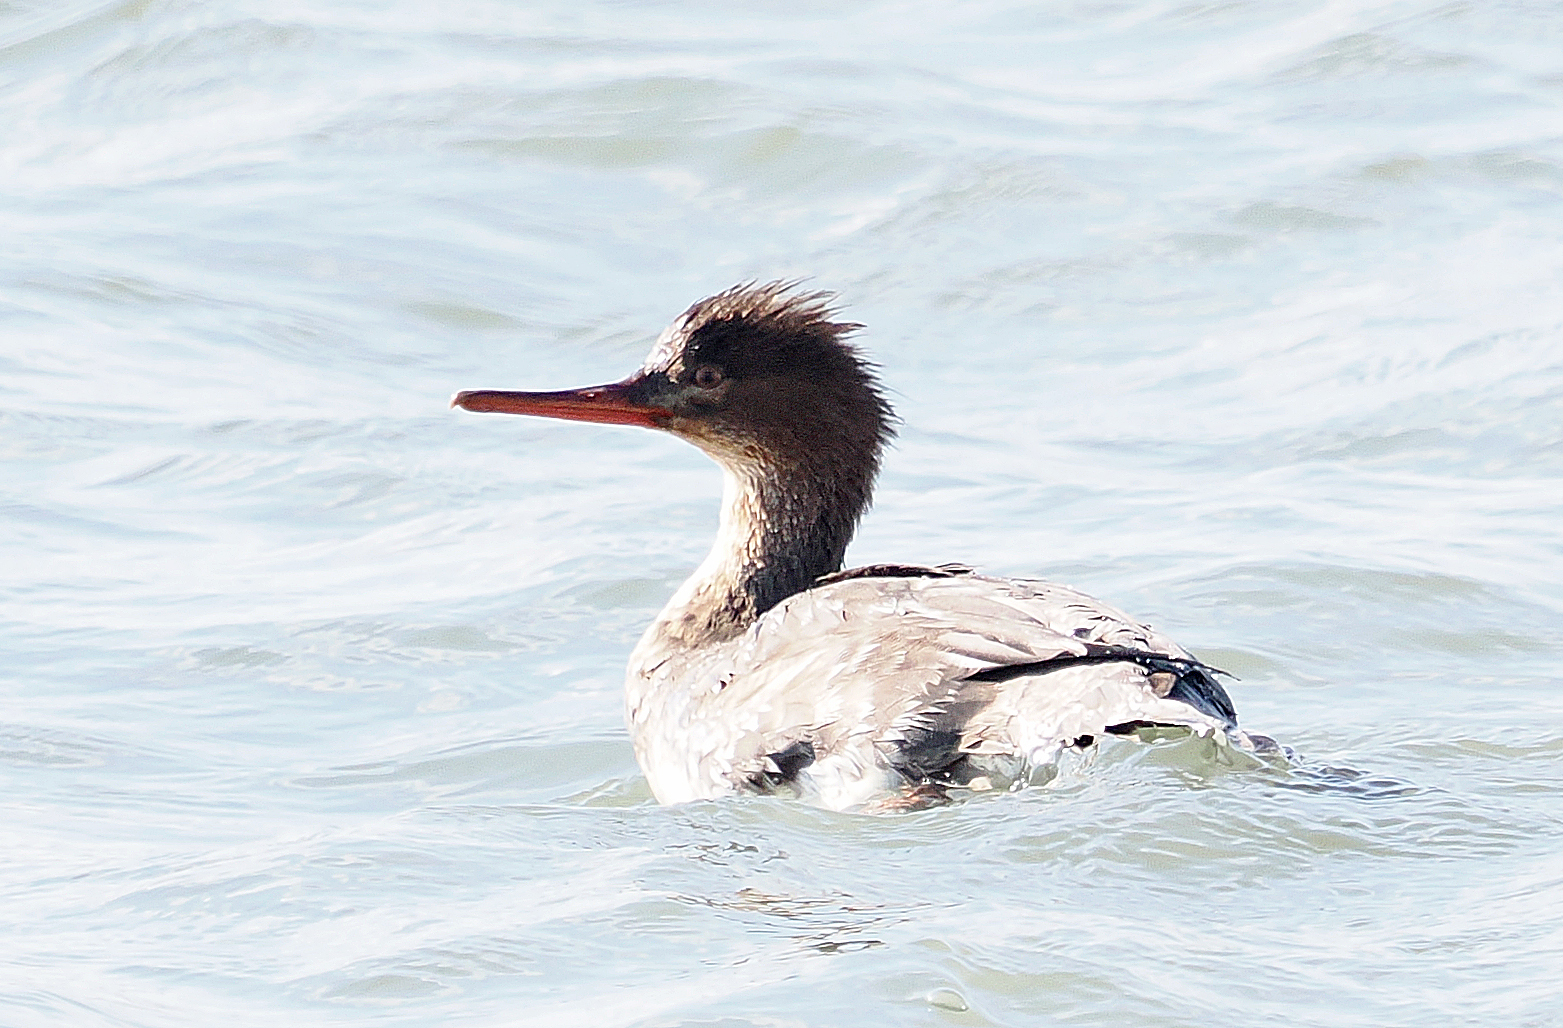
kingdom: Animalia
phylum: Chordata
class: Aves
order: Anseriformes
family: Anatidae
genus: Mergus
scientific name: Mergus serrator
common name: Red-breasted merganser
